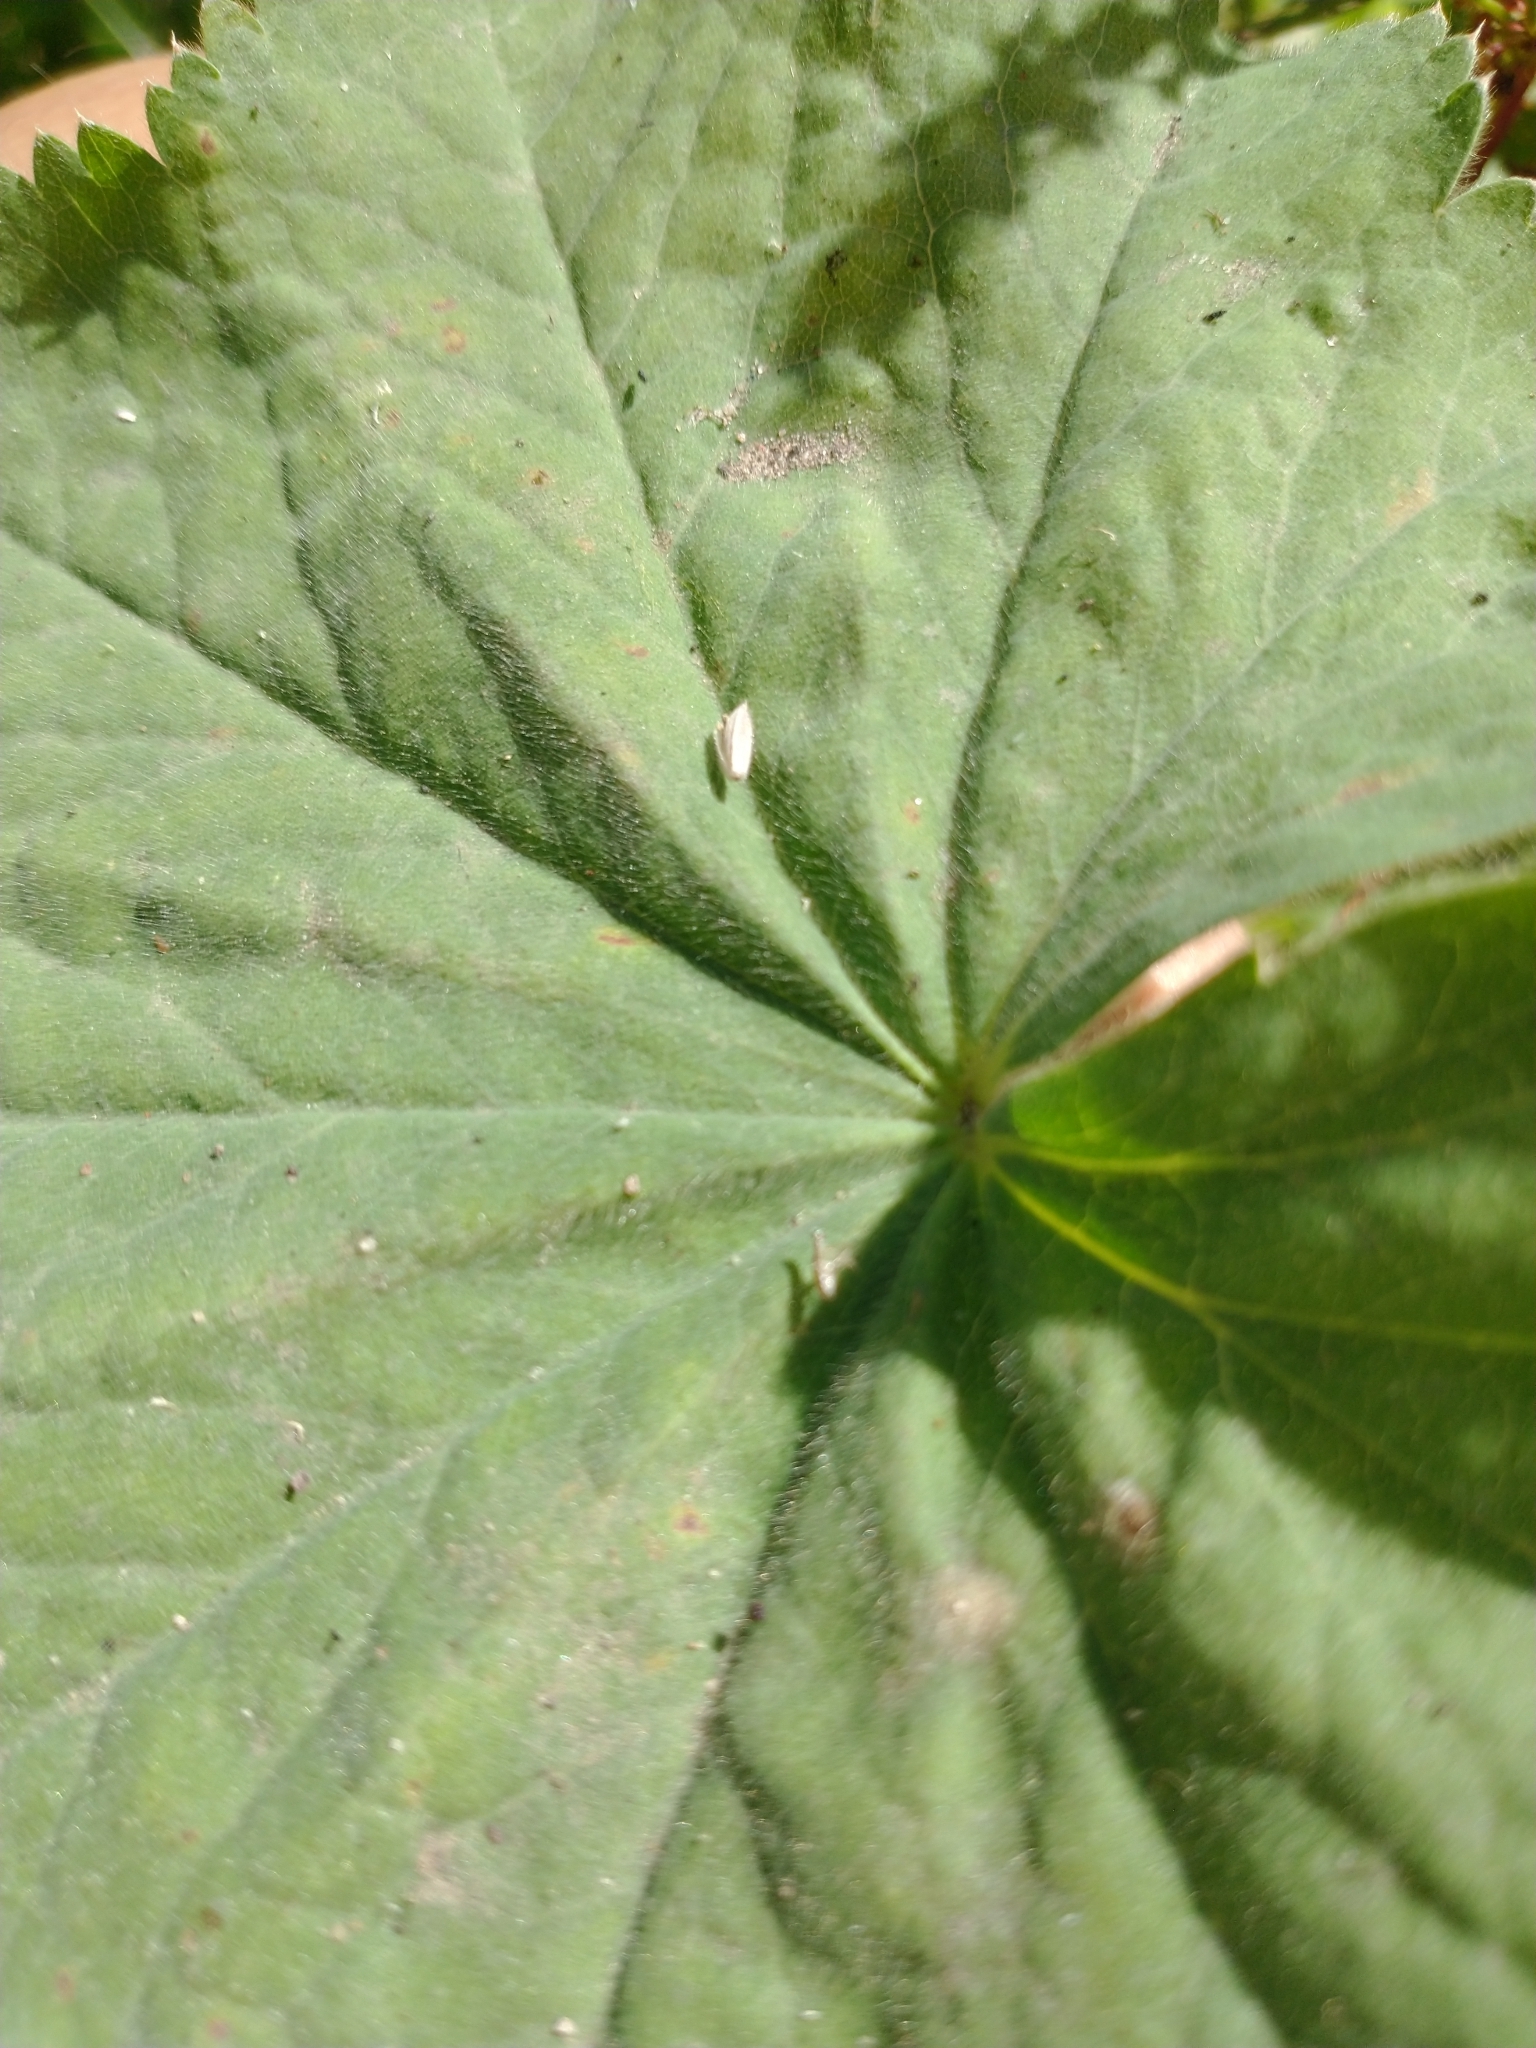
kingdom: Plantae
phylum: Tracheophyta
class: Magnoliopsida
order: Rosales
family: Rosaceae
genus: Alchemilla
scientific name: Alchemilla mollis
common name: Lady's-mantle
